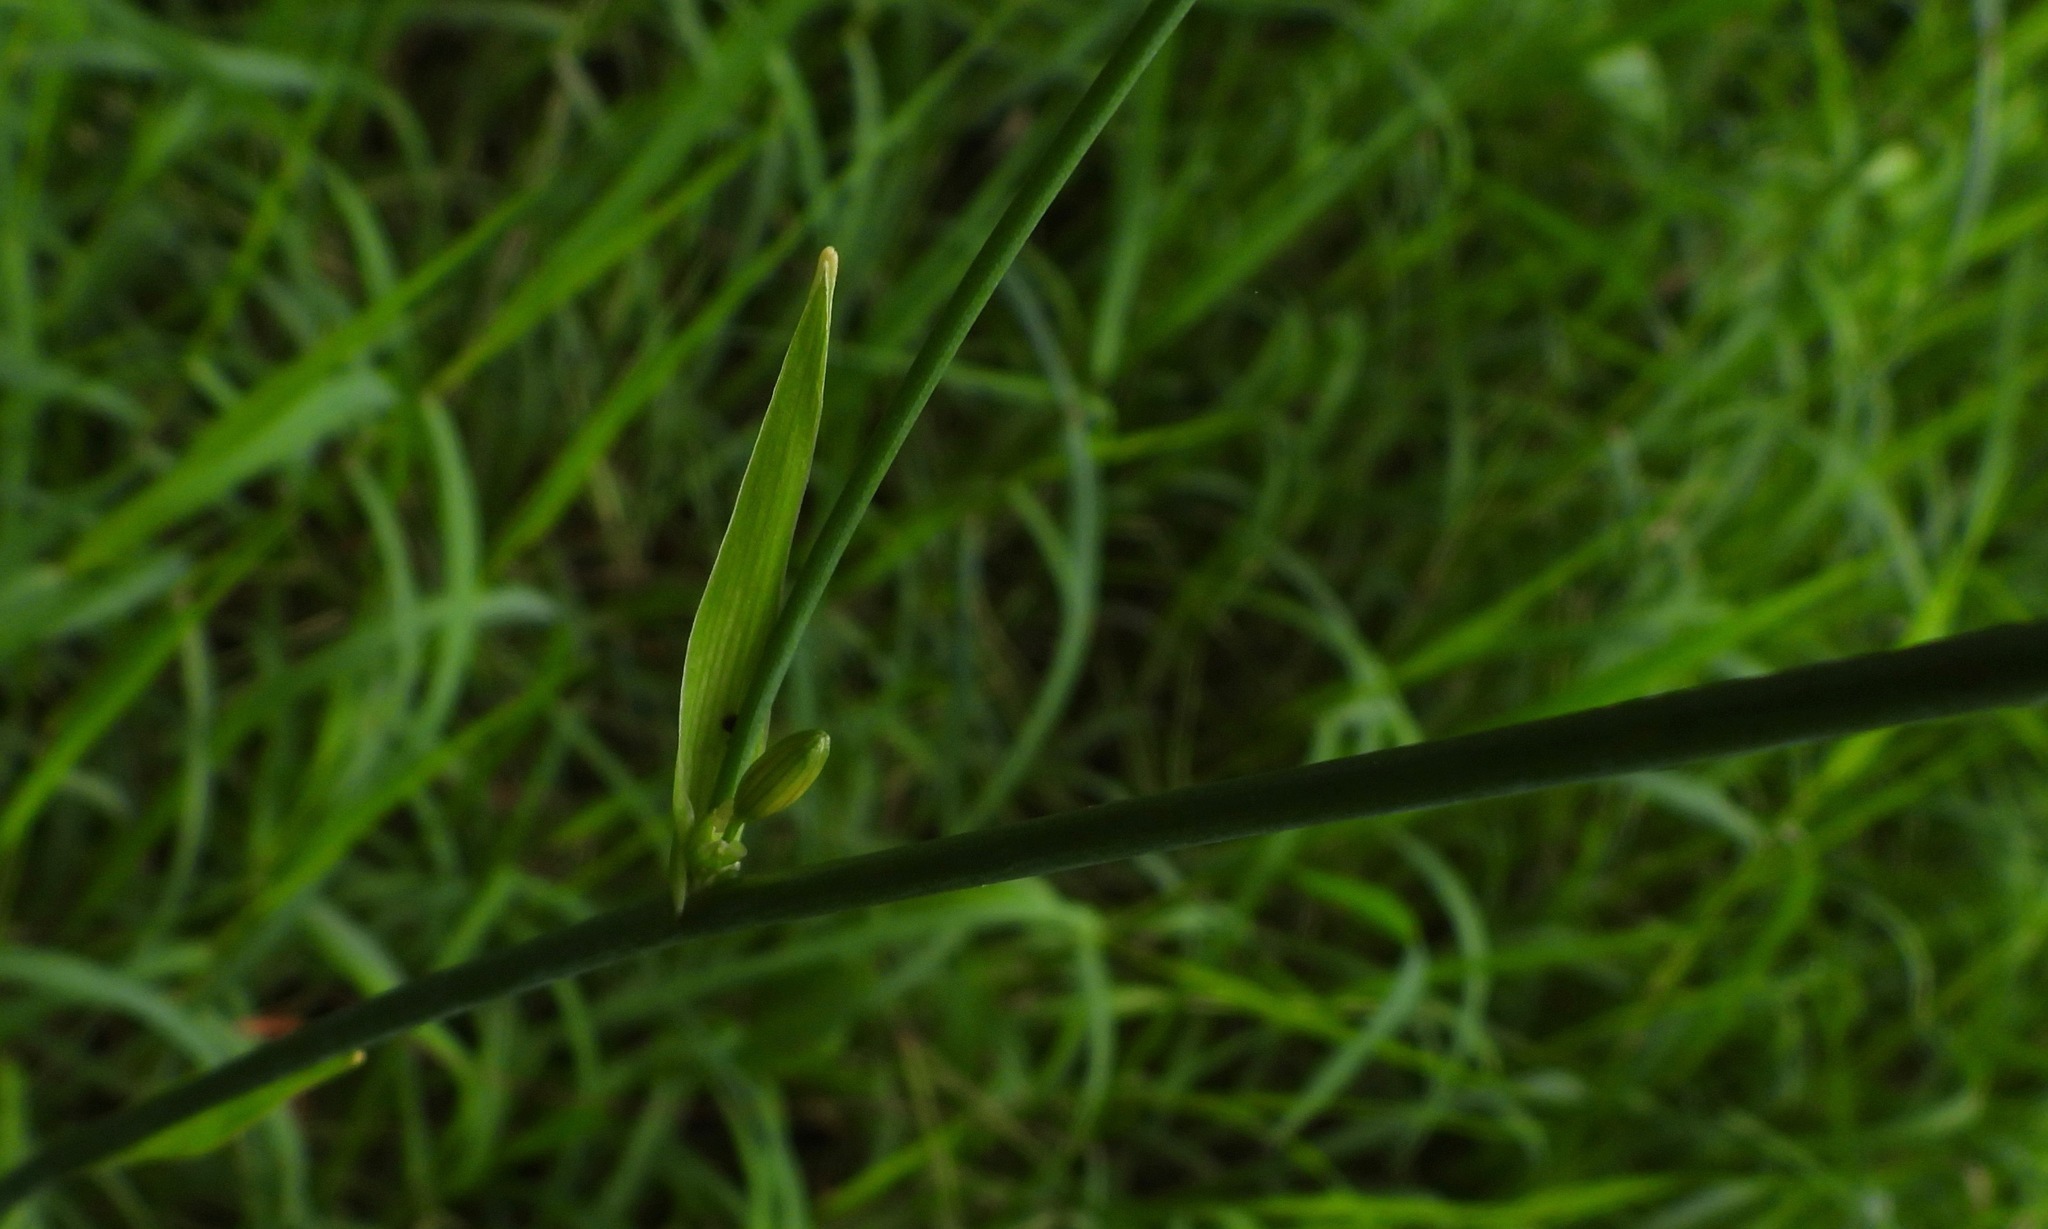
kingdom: Plantae
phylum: Tracheophyta
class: Liliopsida
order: Asparagales
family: Asparagaceae
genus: Echeandia
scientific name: Echeandia formosa
